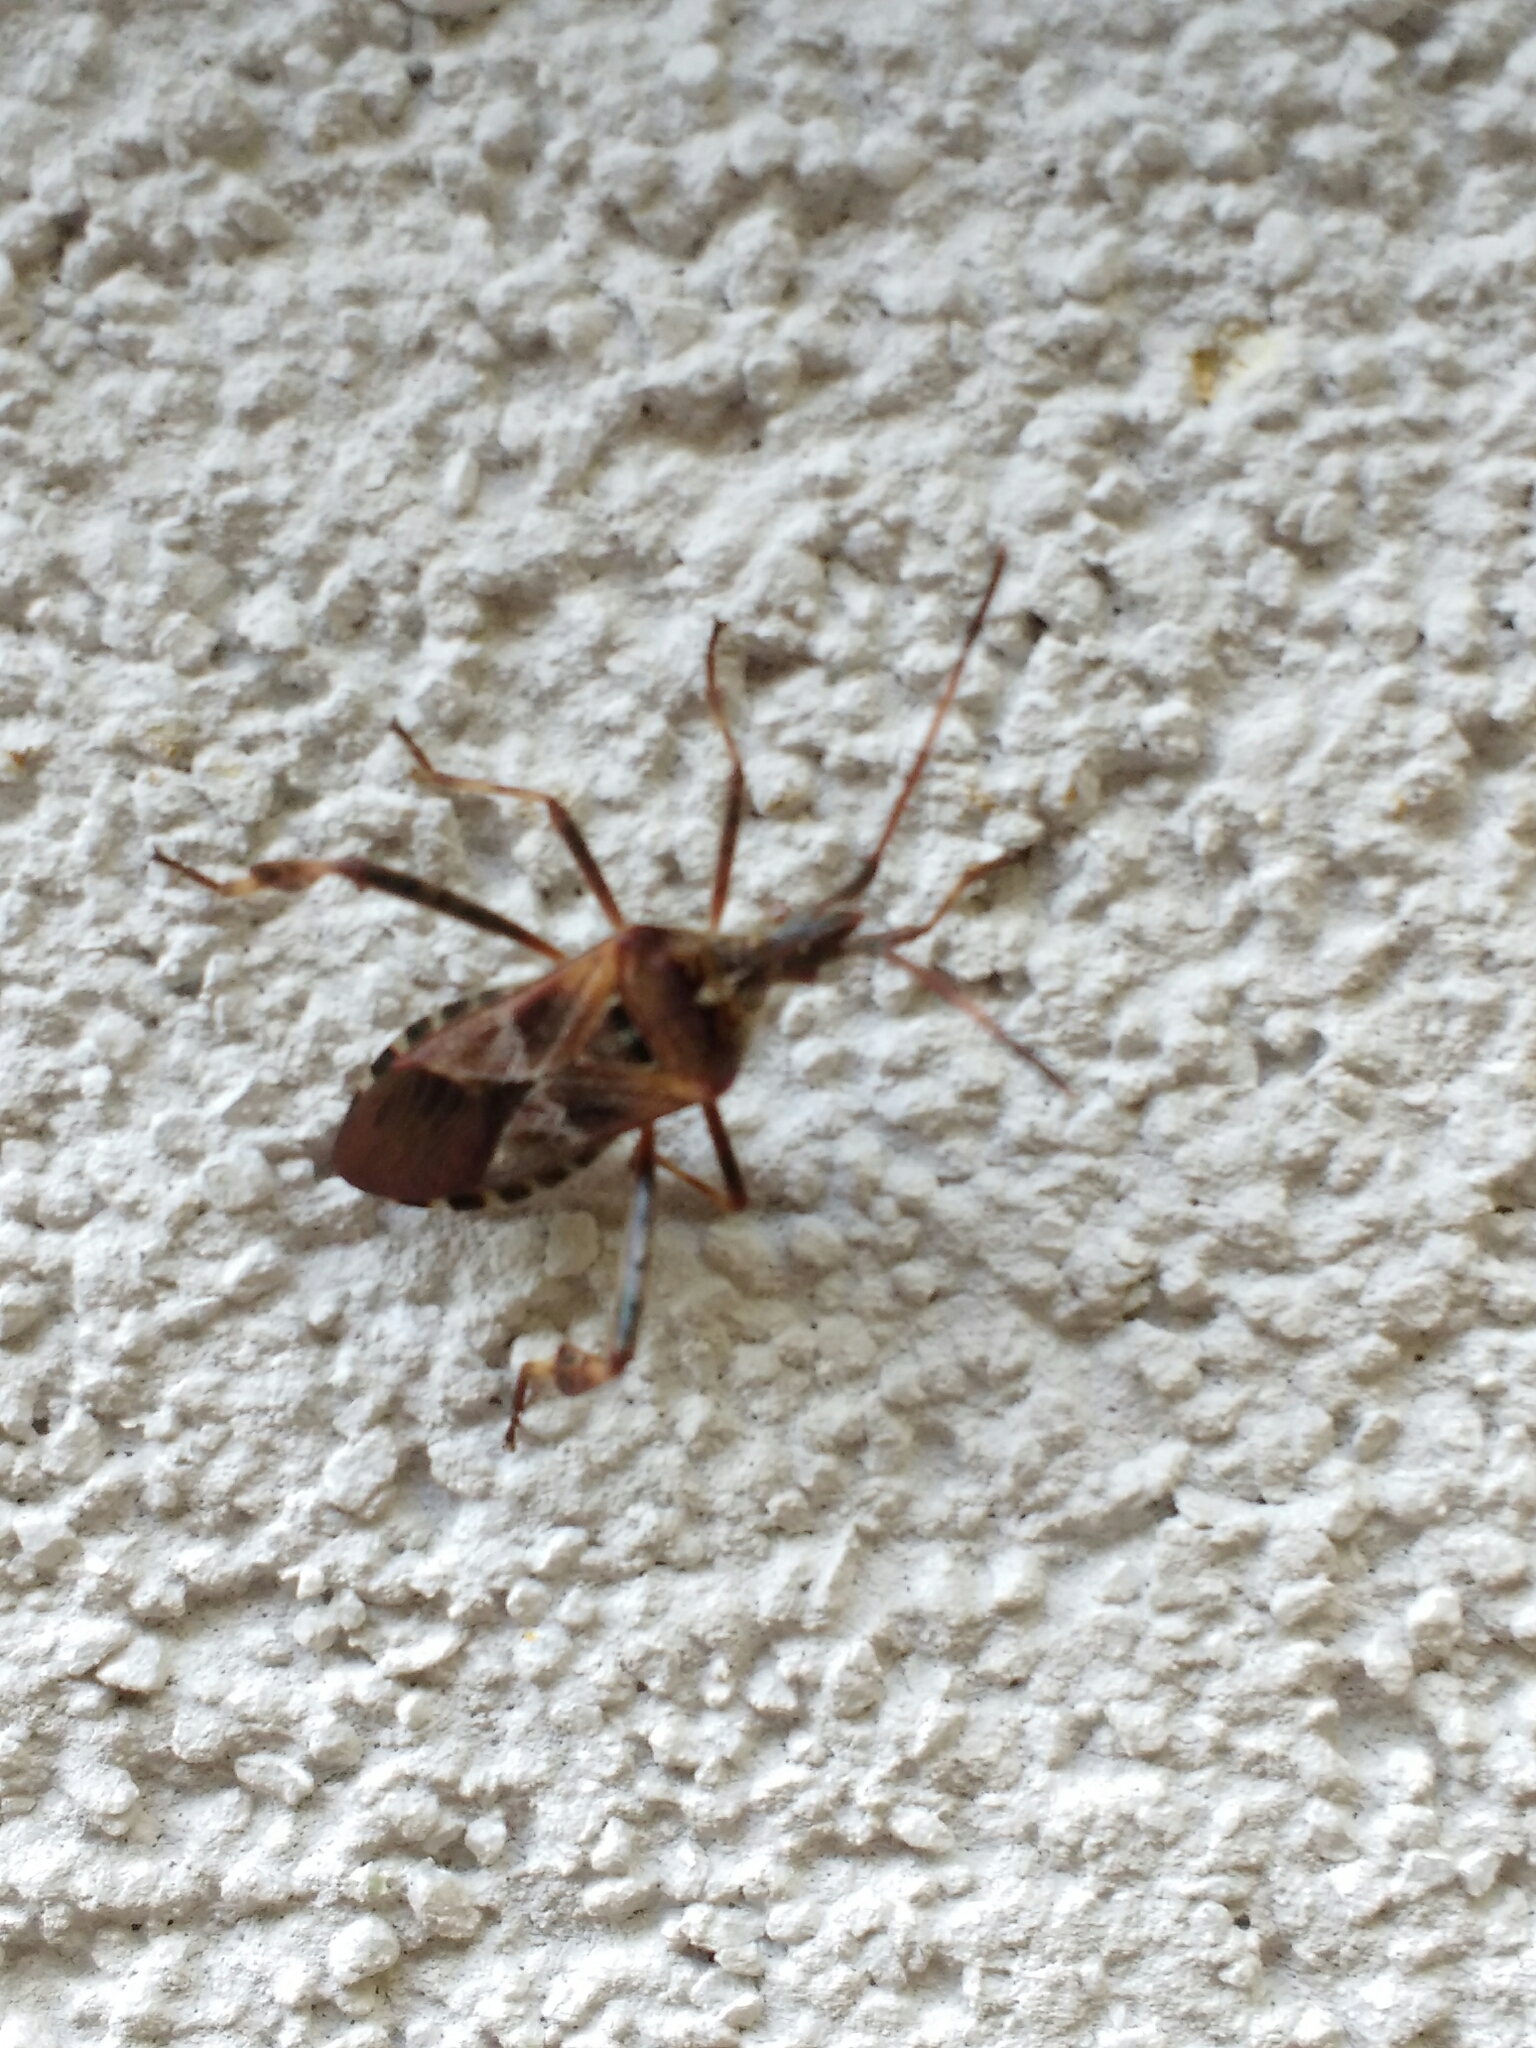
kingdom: Animalia
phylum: Arthropoda
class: Insecta
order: Hemiptera
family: Coreidae
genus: Leptoglossus
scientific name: Leptoglossus occidentalis
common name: Western conifer-seed bug
